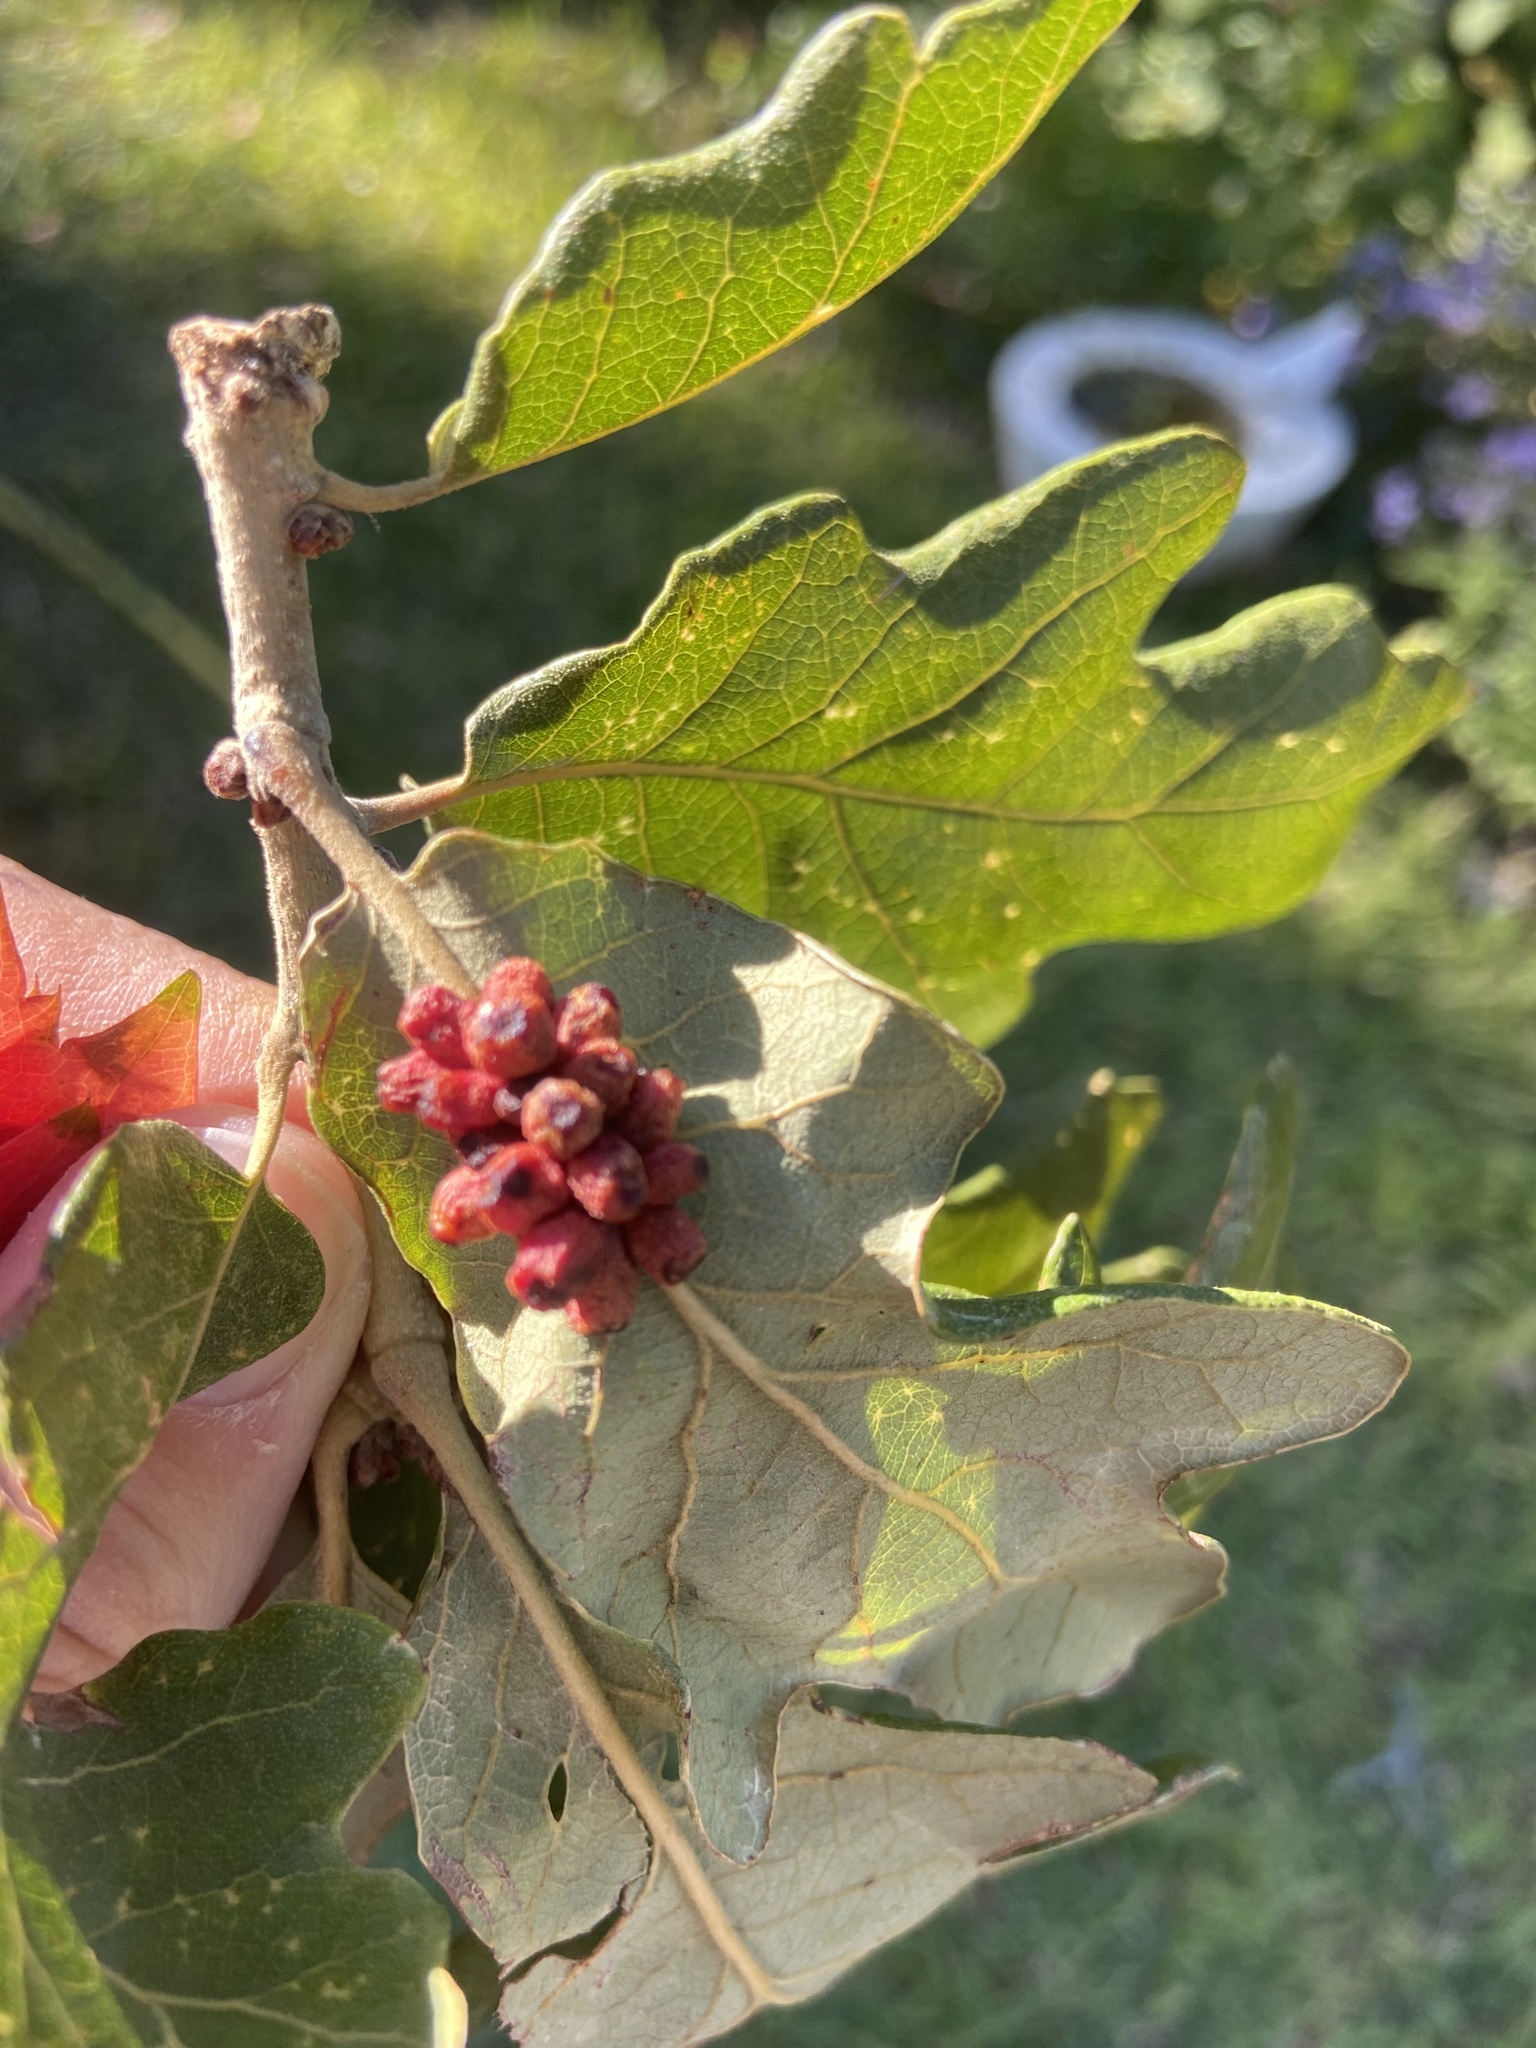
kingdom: Animalia
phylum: Arthropoda
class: Insecta
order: Hymenoptera
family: Cynipidae
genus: Andricus
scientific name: Andricus lustrans
